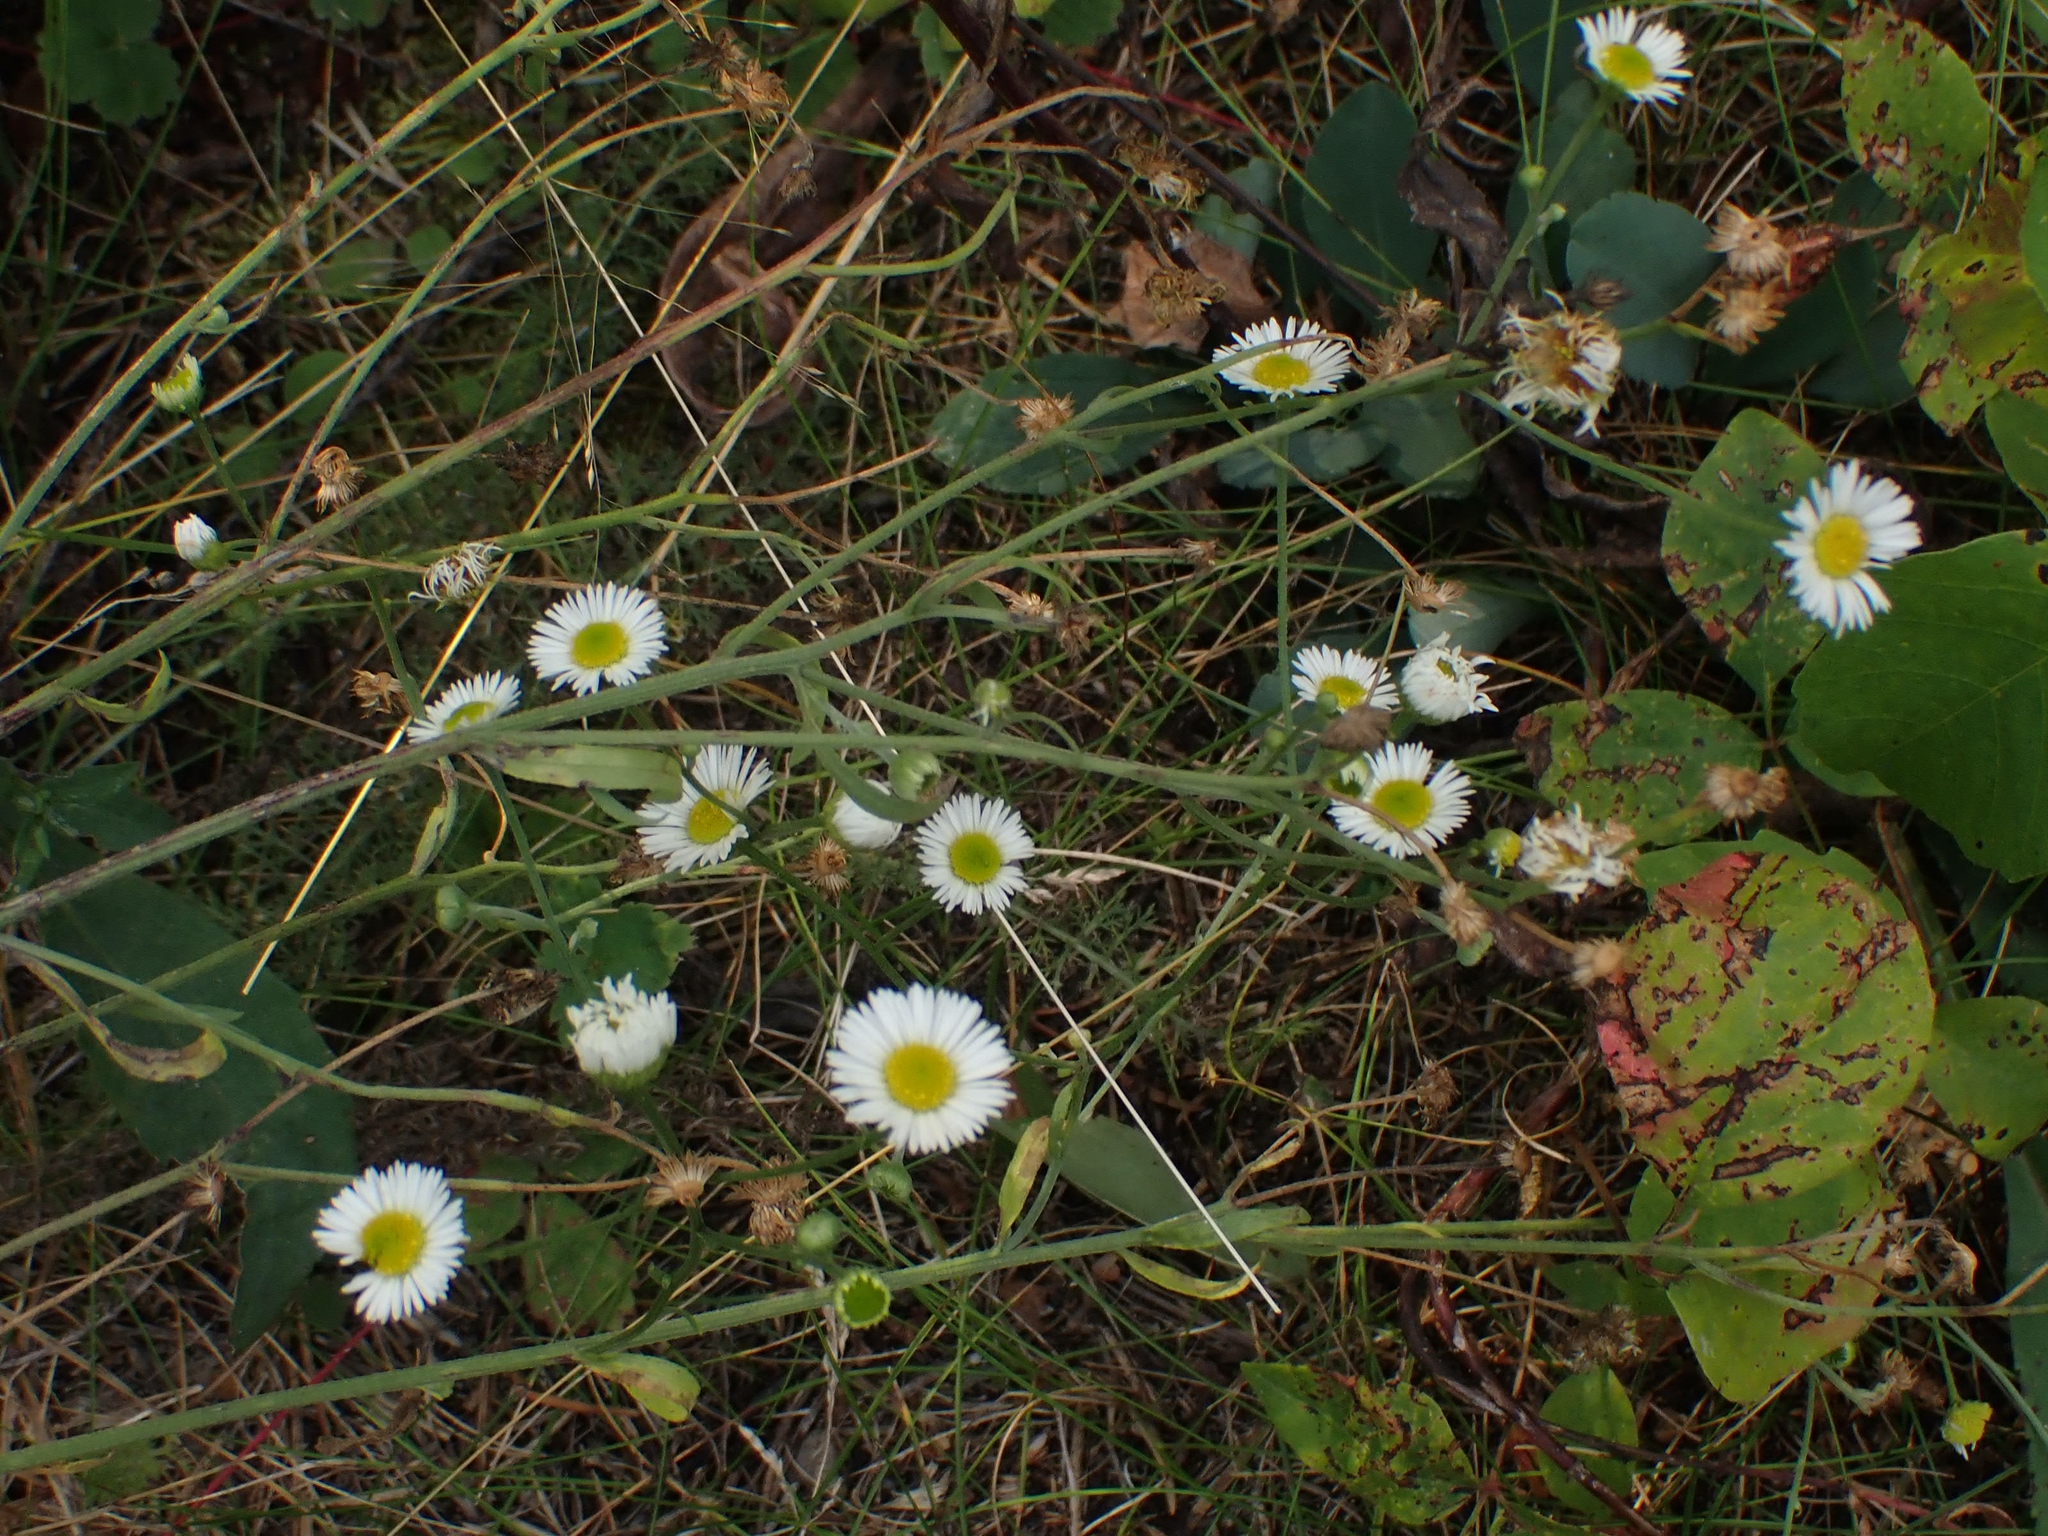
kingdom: Plantae
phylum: Tracheophyta
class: Magnoliopsida
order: Asterales
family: Asteraceae
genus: Erigeron
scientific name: Erigeron strigosus
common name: Common eastern fleabane
